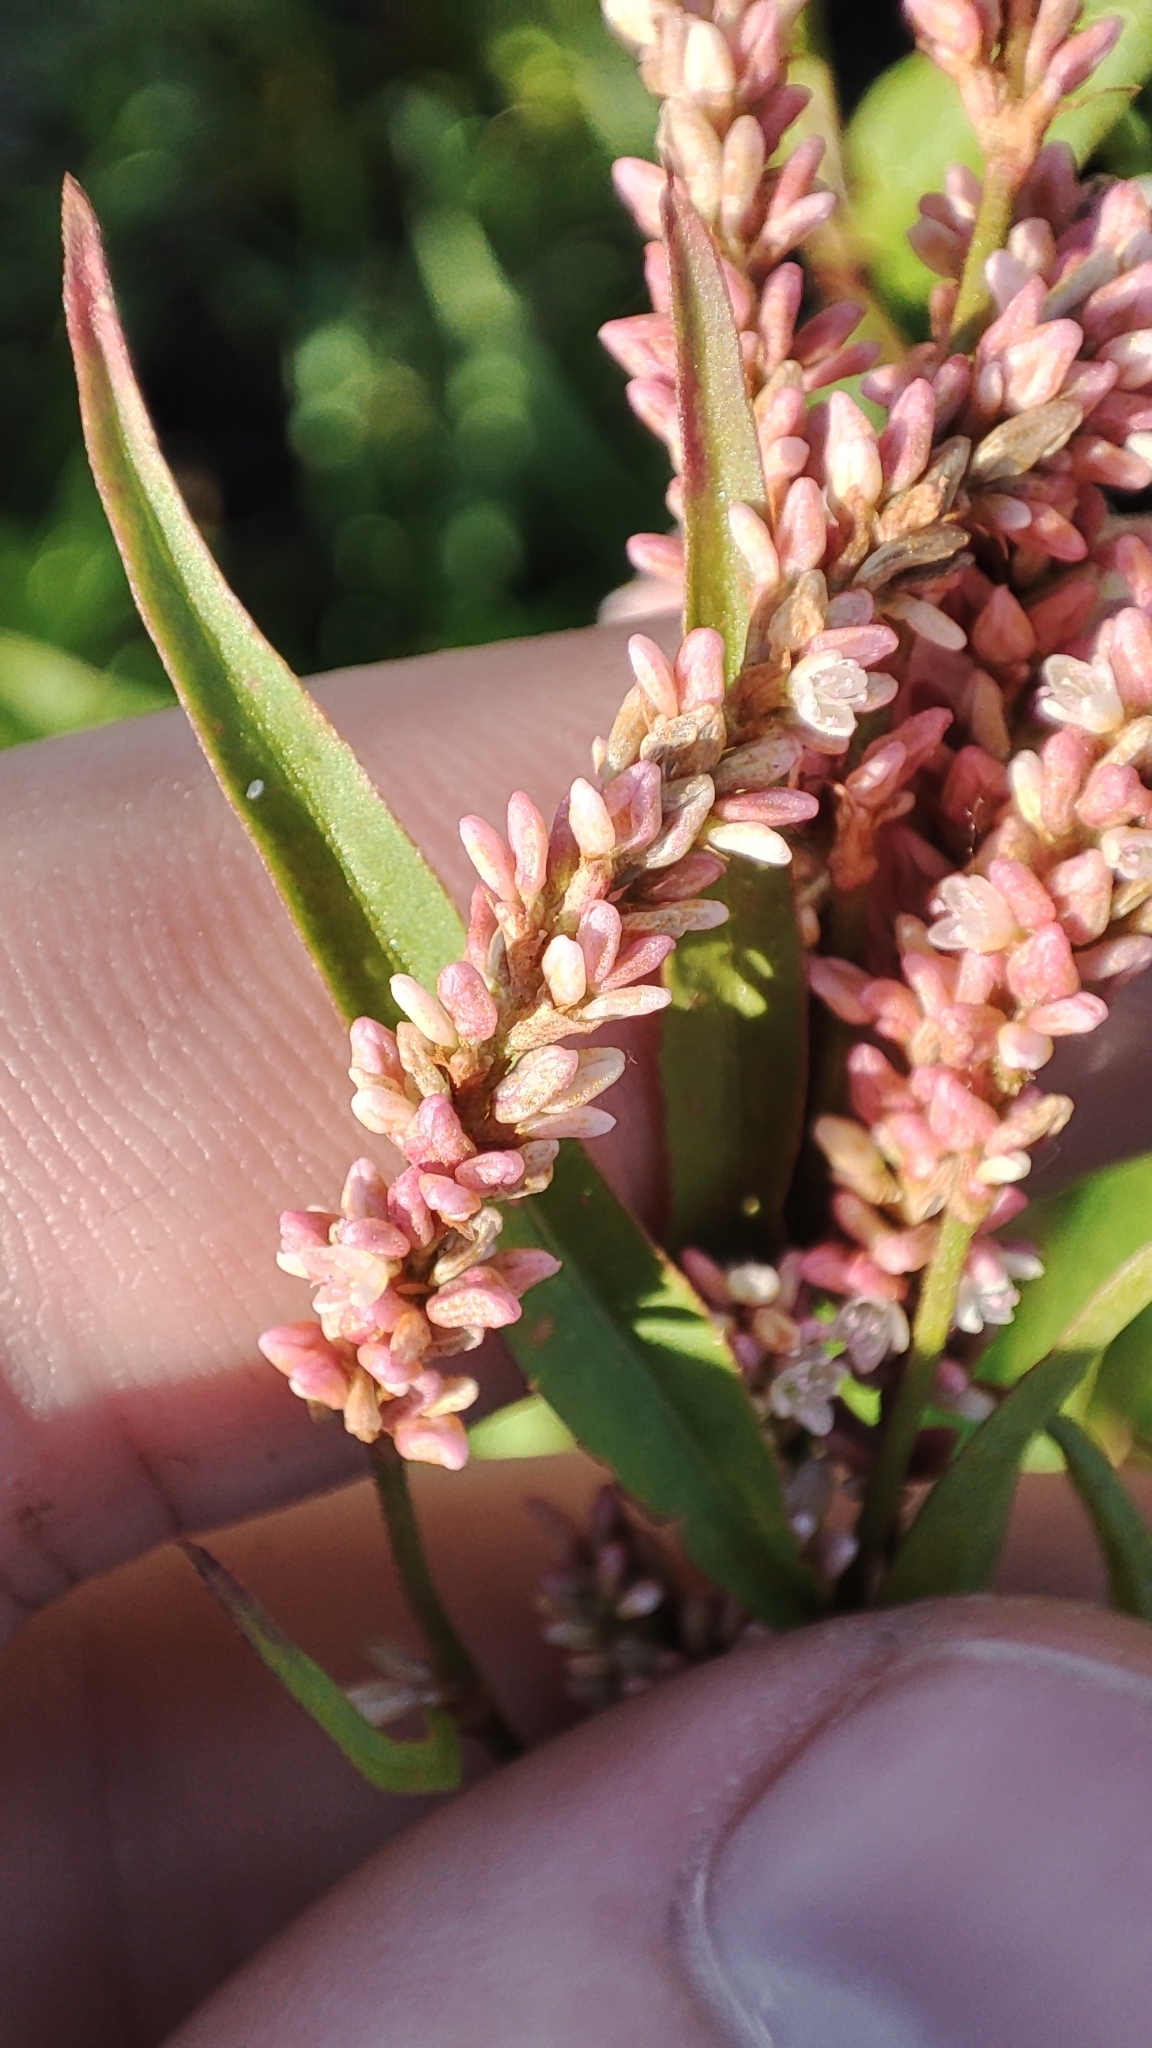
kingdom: Plantae
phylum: Tracheophyta
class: Magnoliopsida
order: Caryophyllales
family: Polygonaceae
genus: Persicaria
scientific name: Persicaria lapathifolia
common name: Curlytop knotweed
